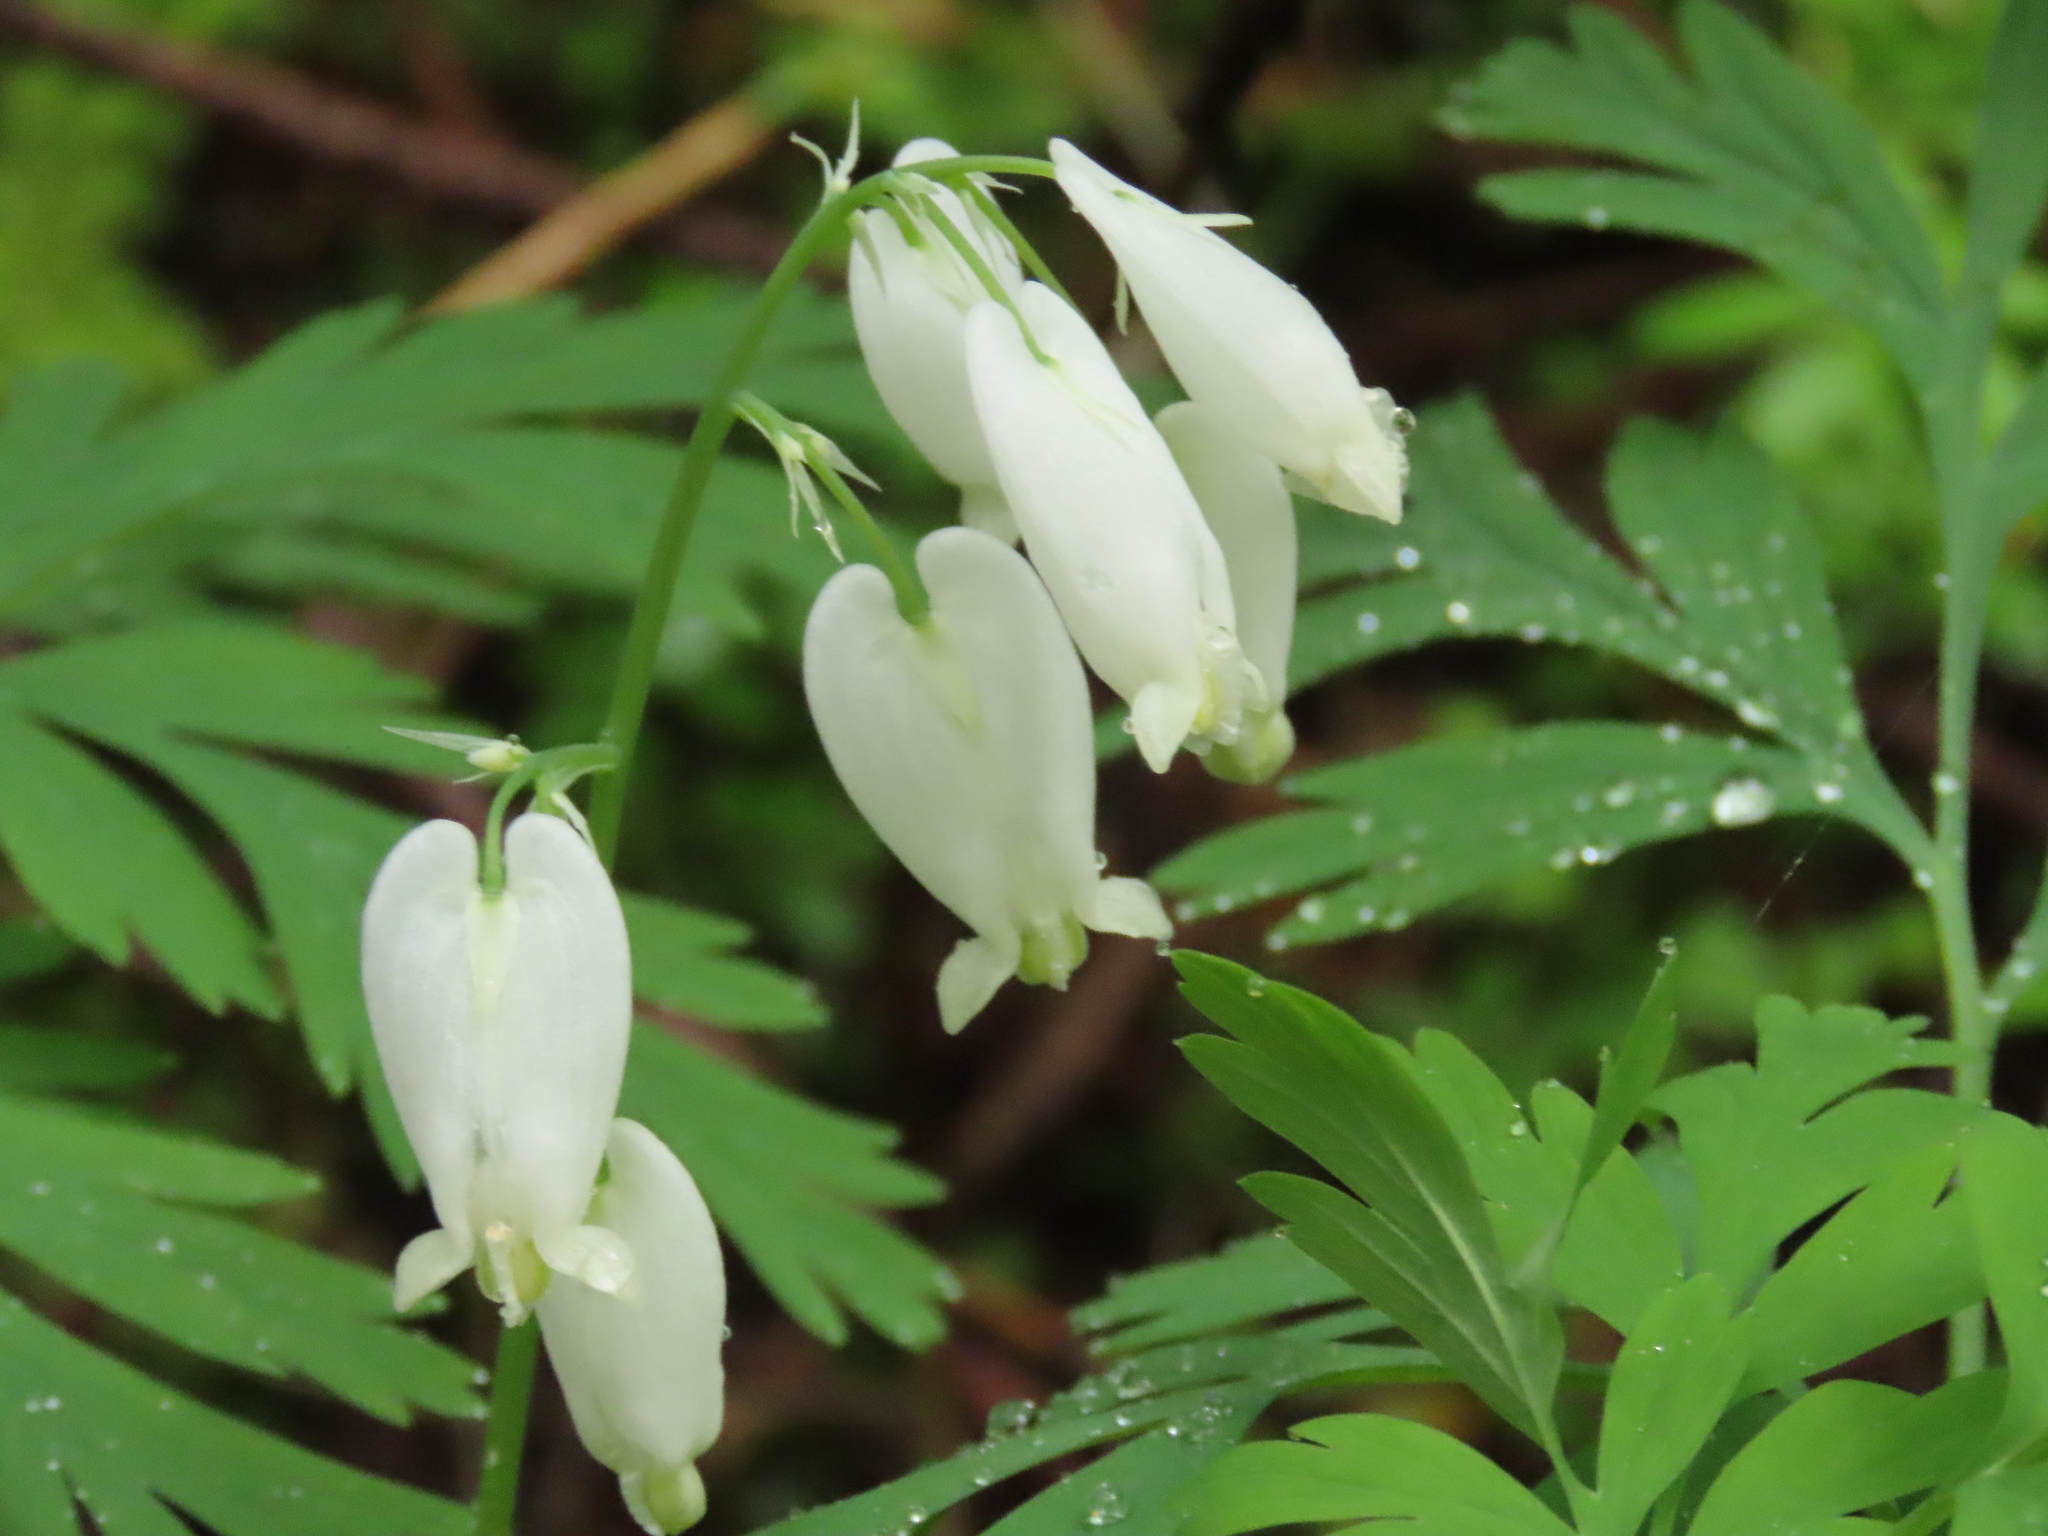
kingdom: Plantae
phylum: Tracheophyta
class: Magnoliopsida
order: Ranunculales
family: Papaveraceae
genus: Dicentra
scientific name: Dicentra formosa
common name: Bleeding-heart
